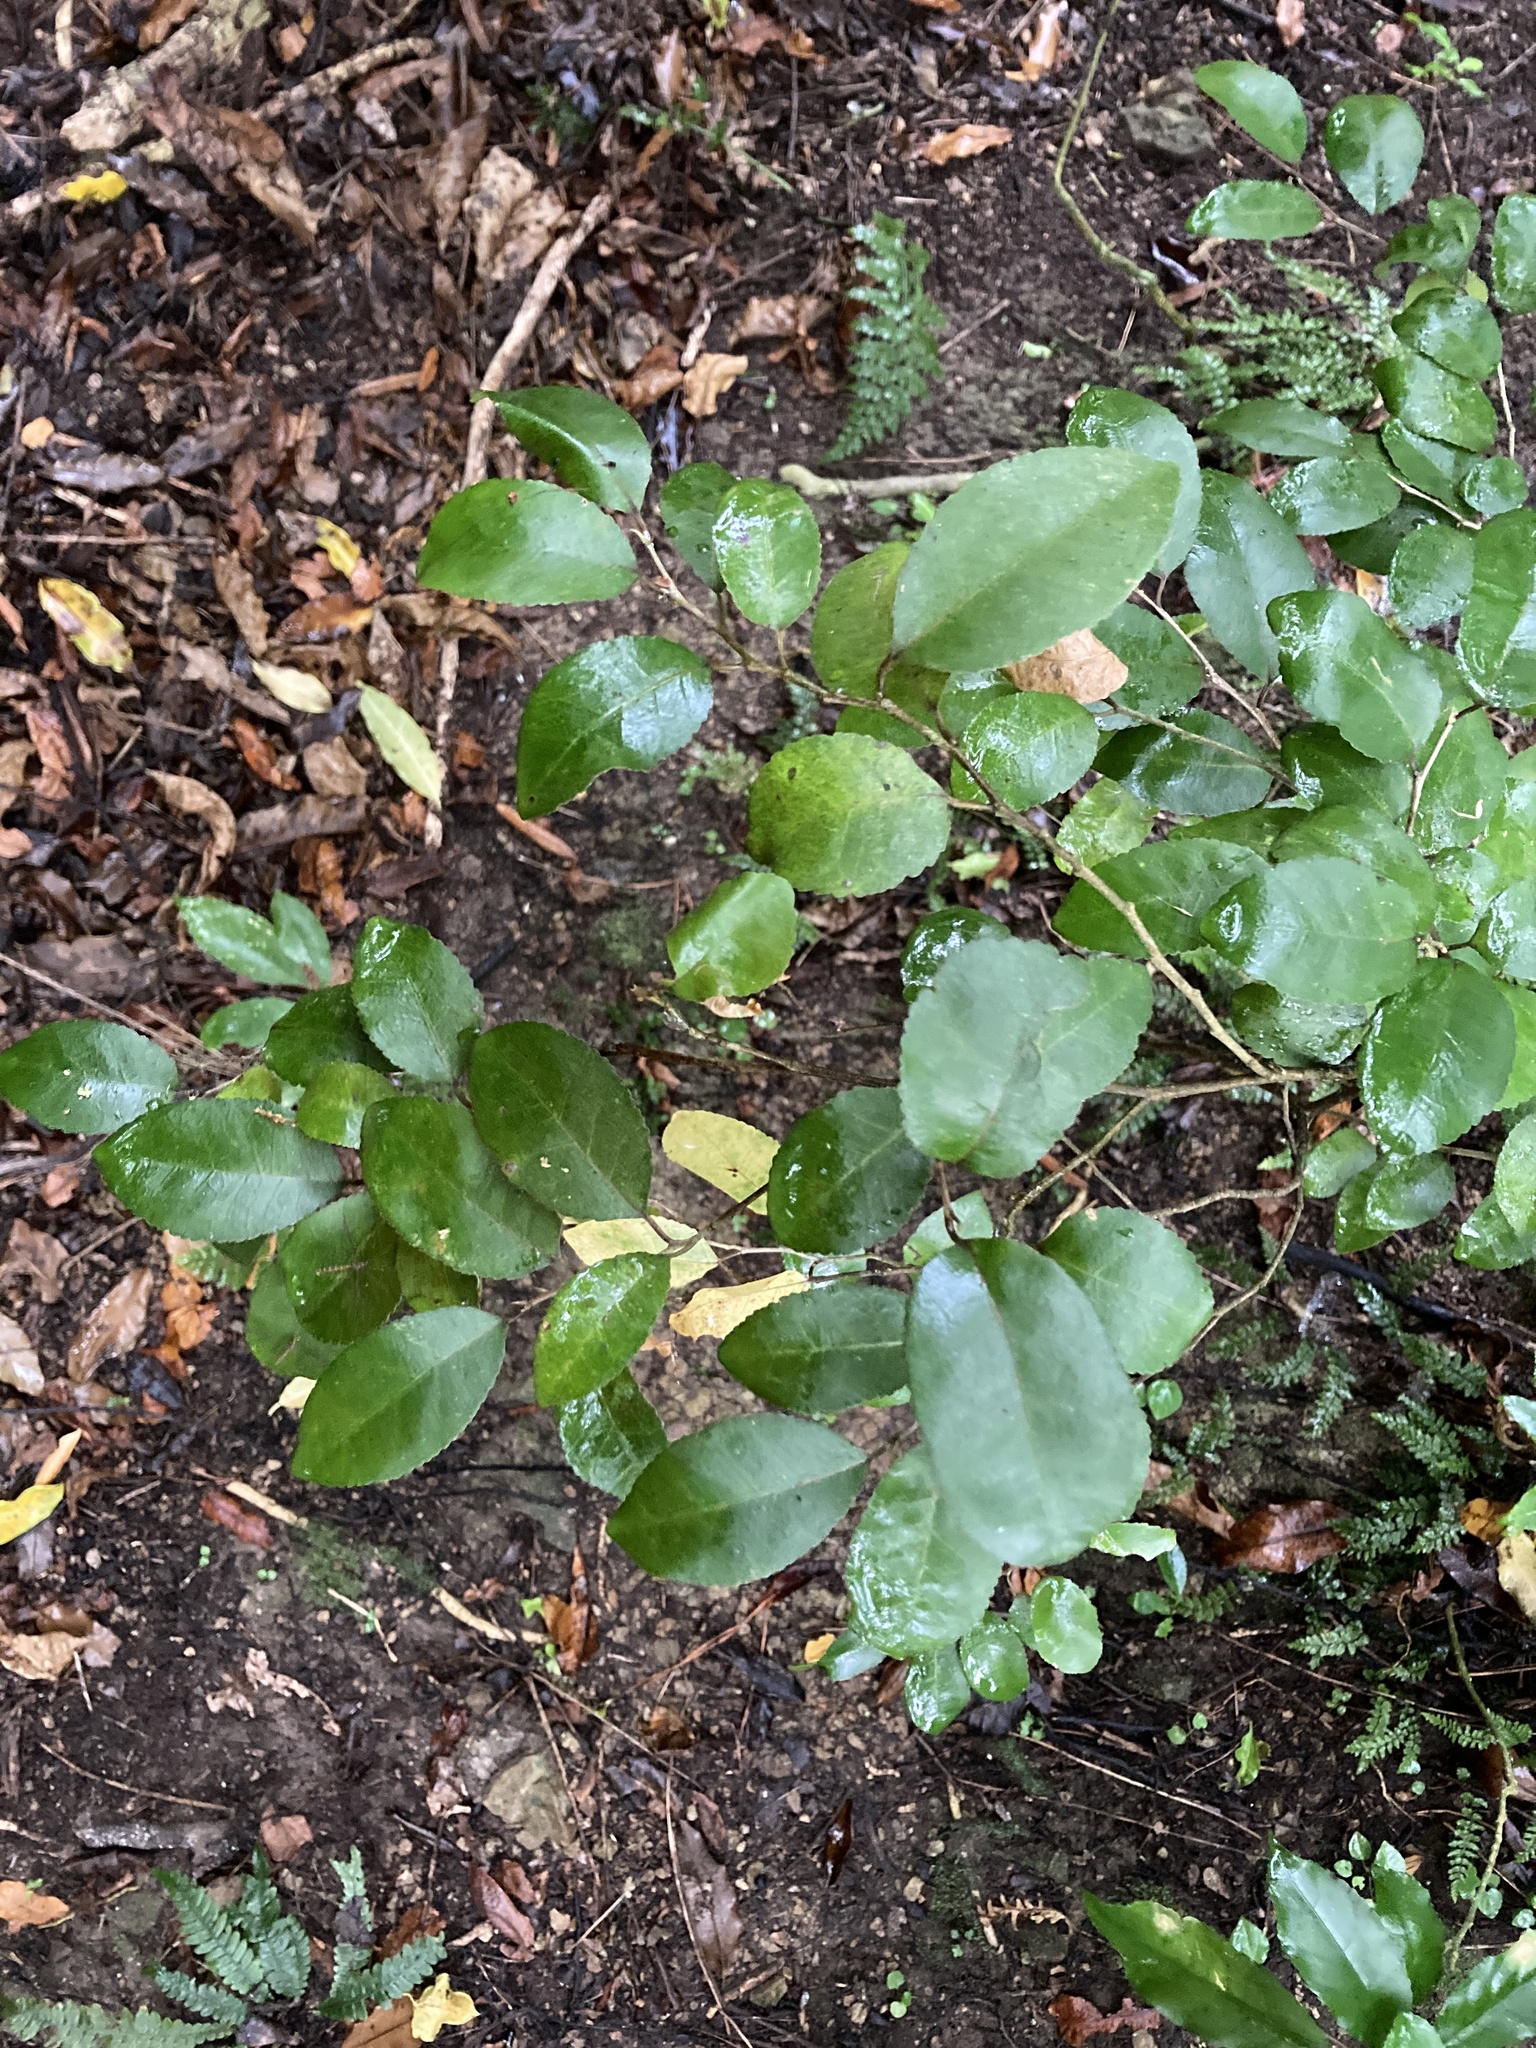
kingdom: Plantae
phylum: Tracheophyta
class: Magnoliopsida
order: Rosales
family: Moraceae
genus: Paratrophis
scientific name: Paratrophis banksii
